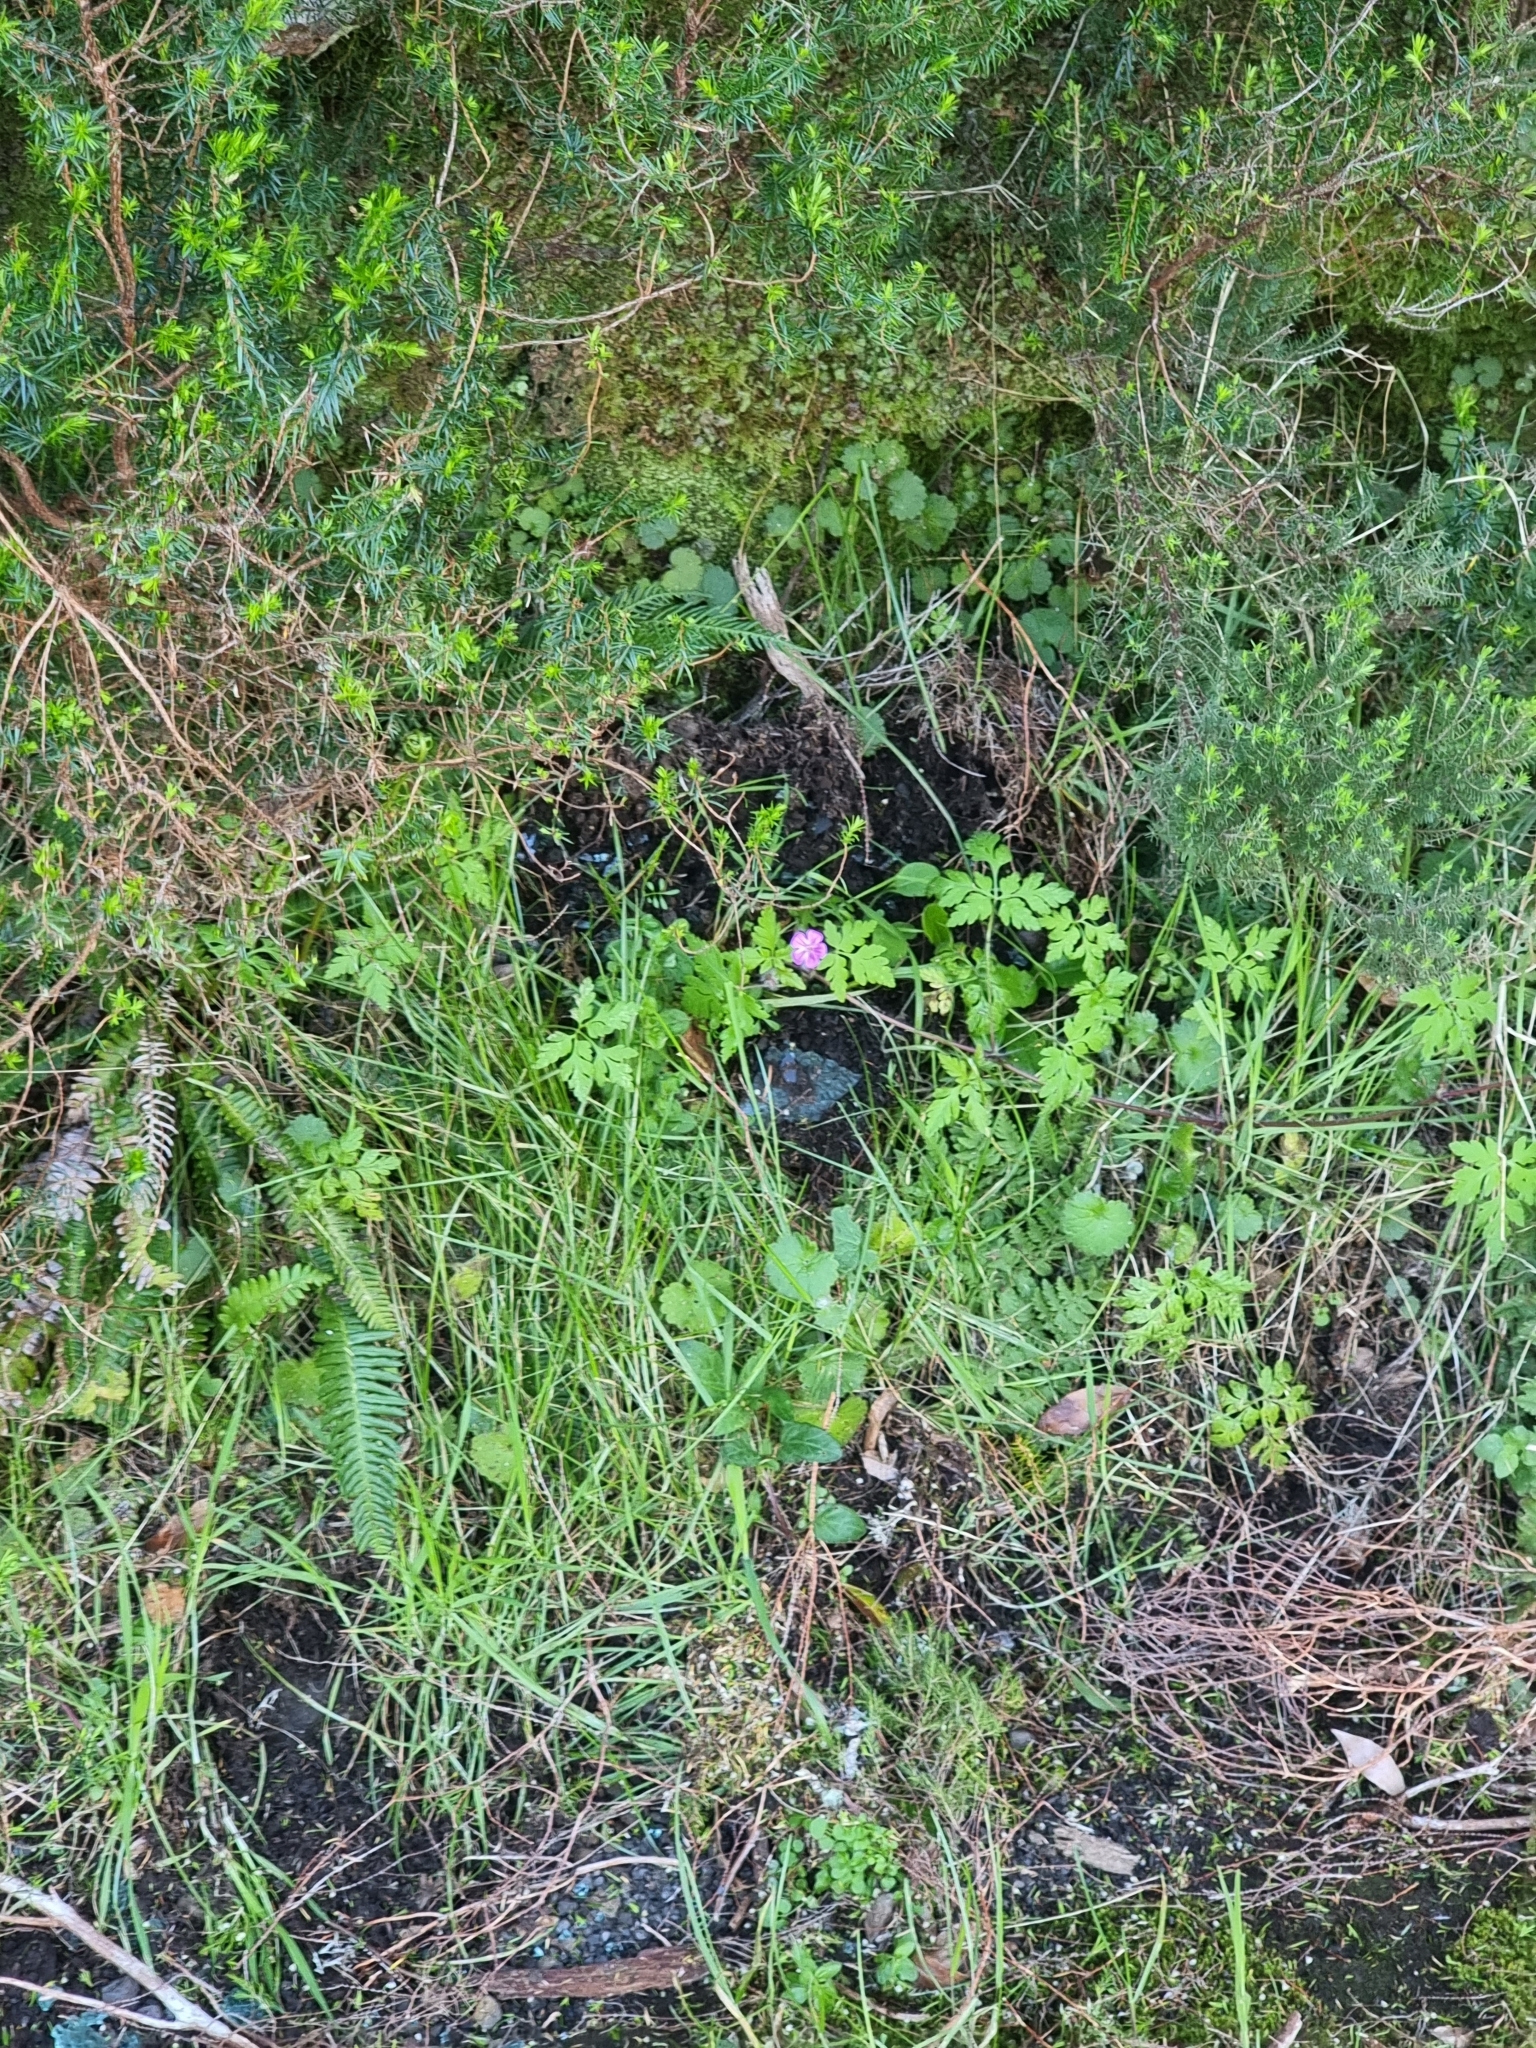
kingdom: Plantae
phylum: Tracheophyta
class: Magnoliopsida
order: Geraniales
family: Geraniaceae
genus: Geranium
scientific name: Geranium robertianum
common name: Herb-robert
